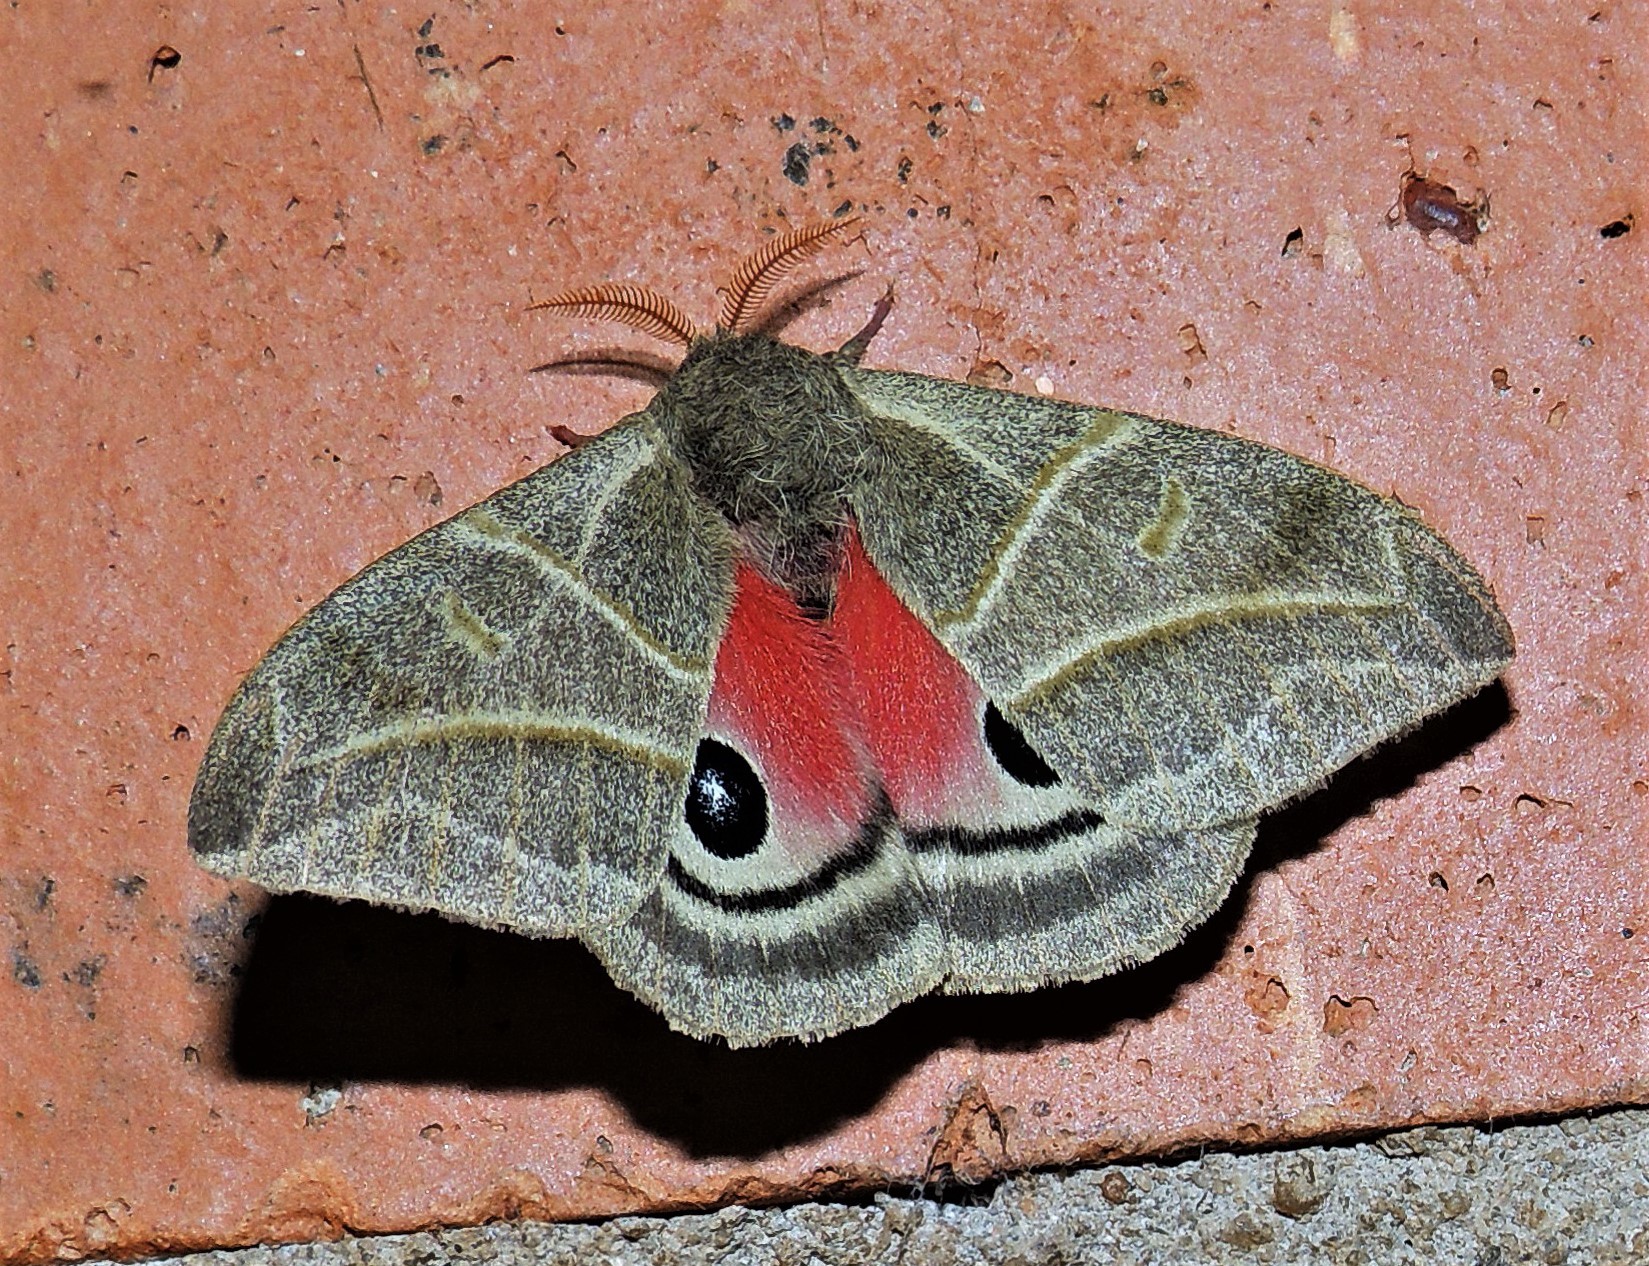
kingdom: Animalia
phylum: Arthropoda
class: Insecta
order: Lepidoptera
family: Saturniidae
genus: Austrolippa
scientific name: Austrolippa cruenta
